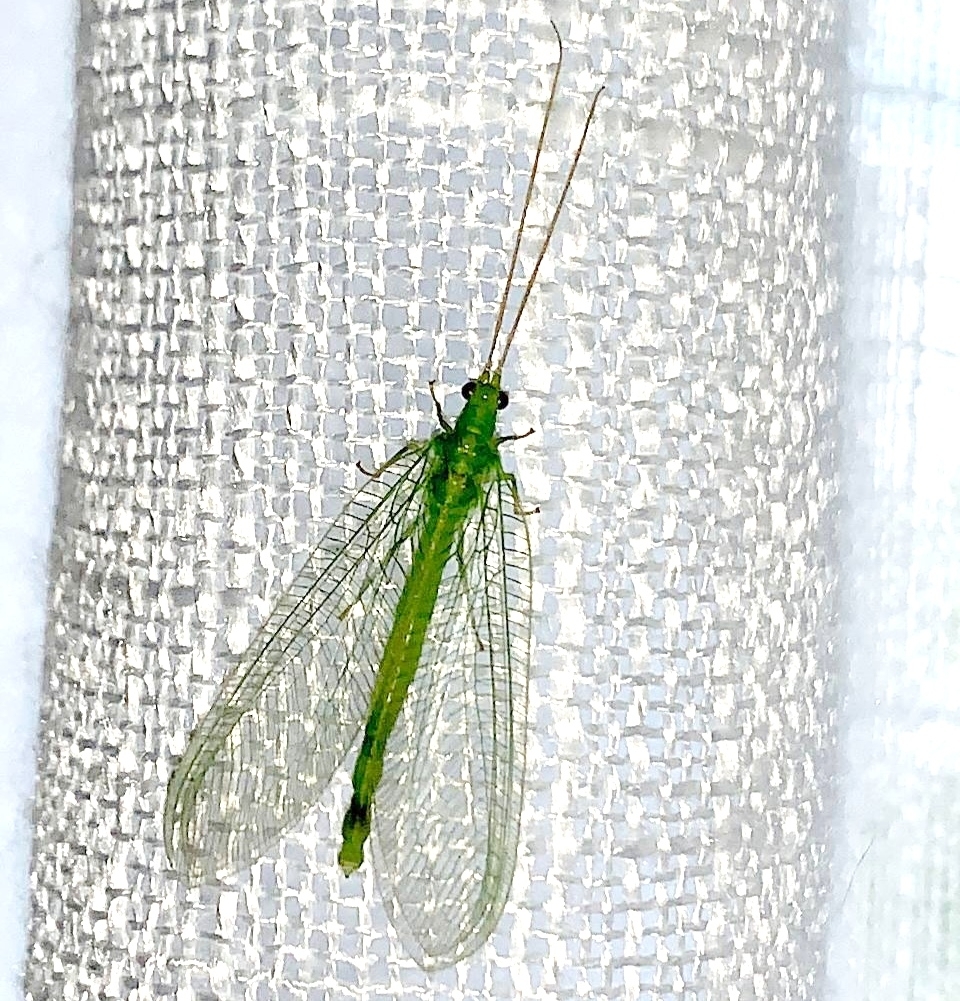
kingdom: Animalia
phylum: Arthropoda
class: Insecta
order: Neuroptera
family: Chrysopidae
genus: Nineta
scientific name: Nineta vittata
